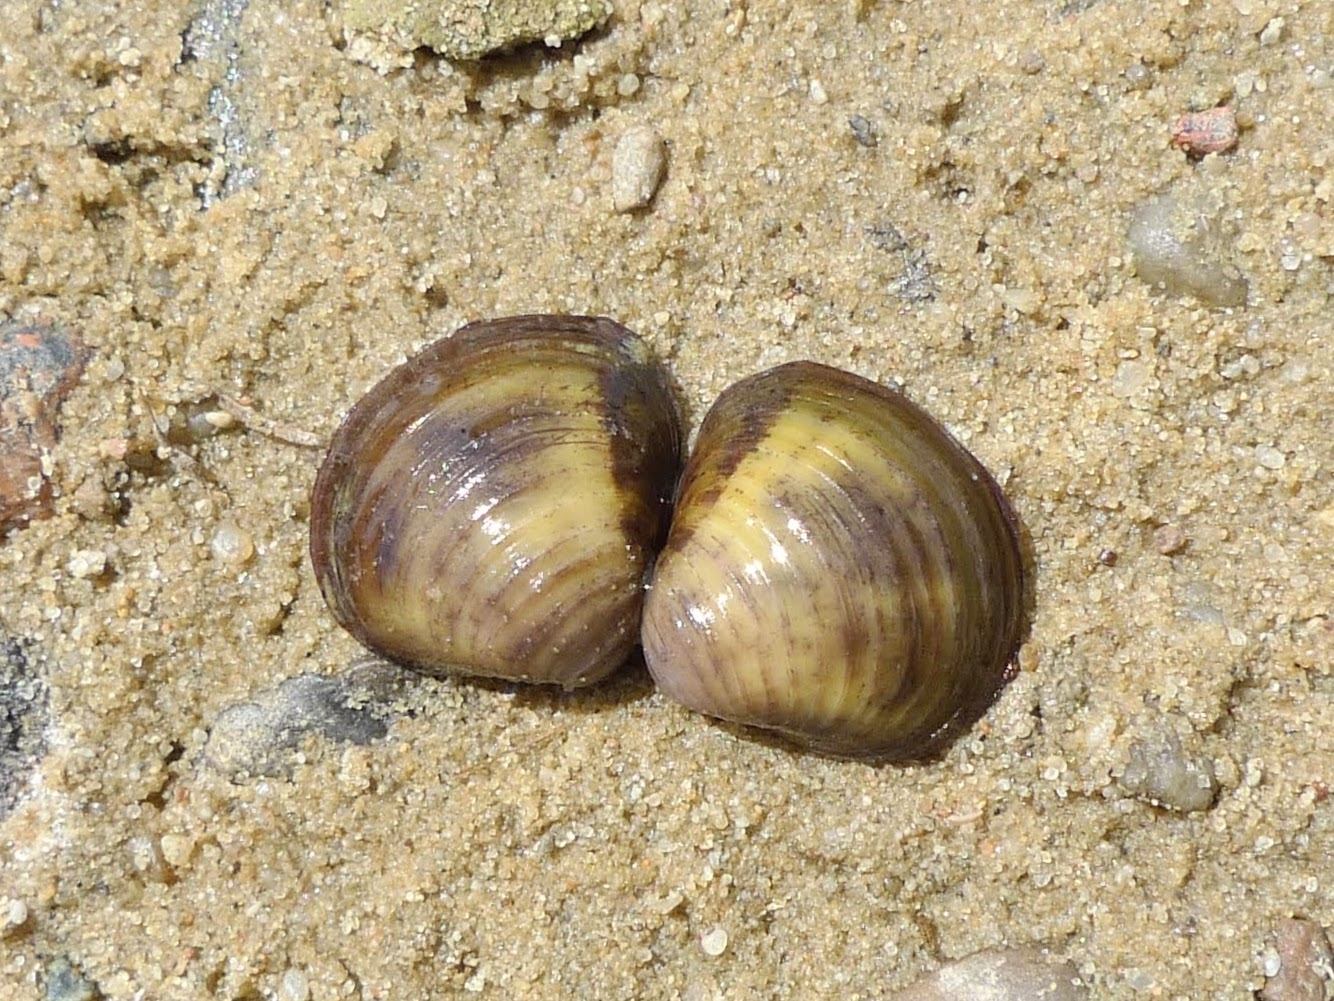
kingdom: Animalia
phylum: Mollusca
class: Bivalvia
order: Venerida
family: Cyrenidae
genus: Corbicula
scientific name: Corbicula fluminea
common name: Asian clam
